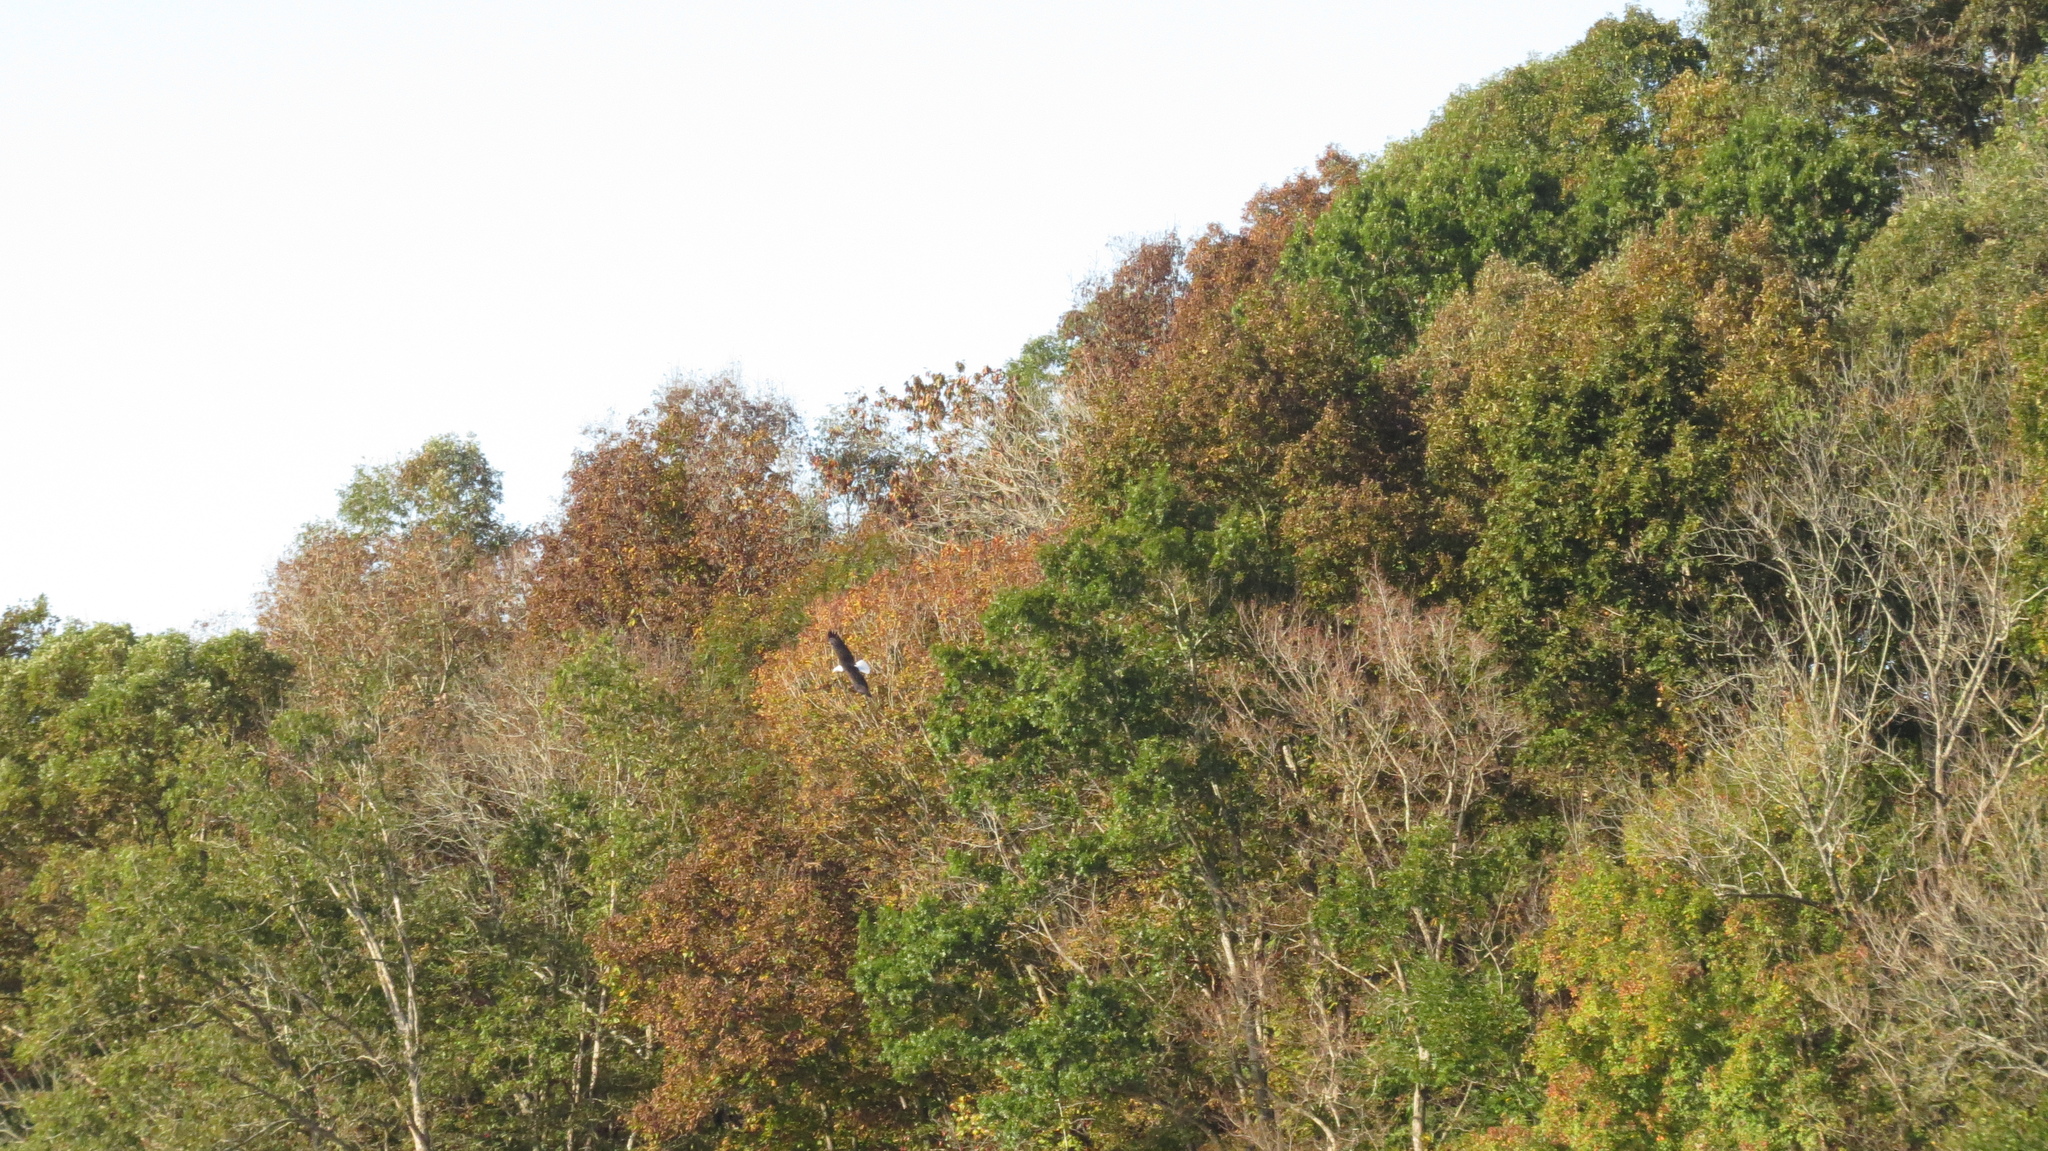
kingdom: Animalia
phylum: Chordata
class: Aves
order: Accipitriformes
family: Accipitridae
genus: Haliaeetus
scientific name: Haliaeetus leucocephalus
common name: Bald eagle
